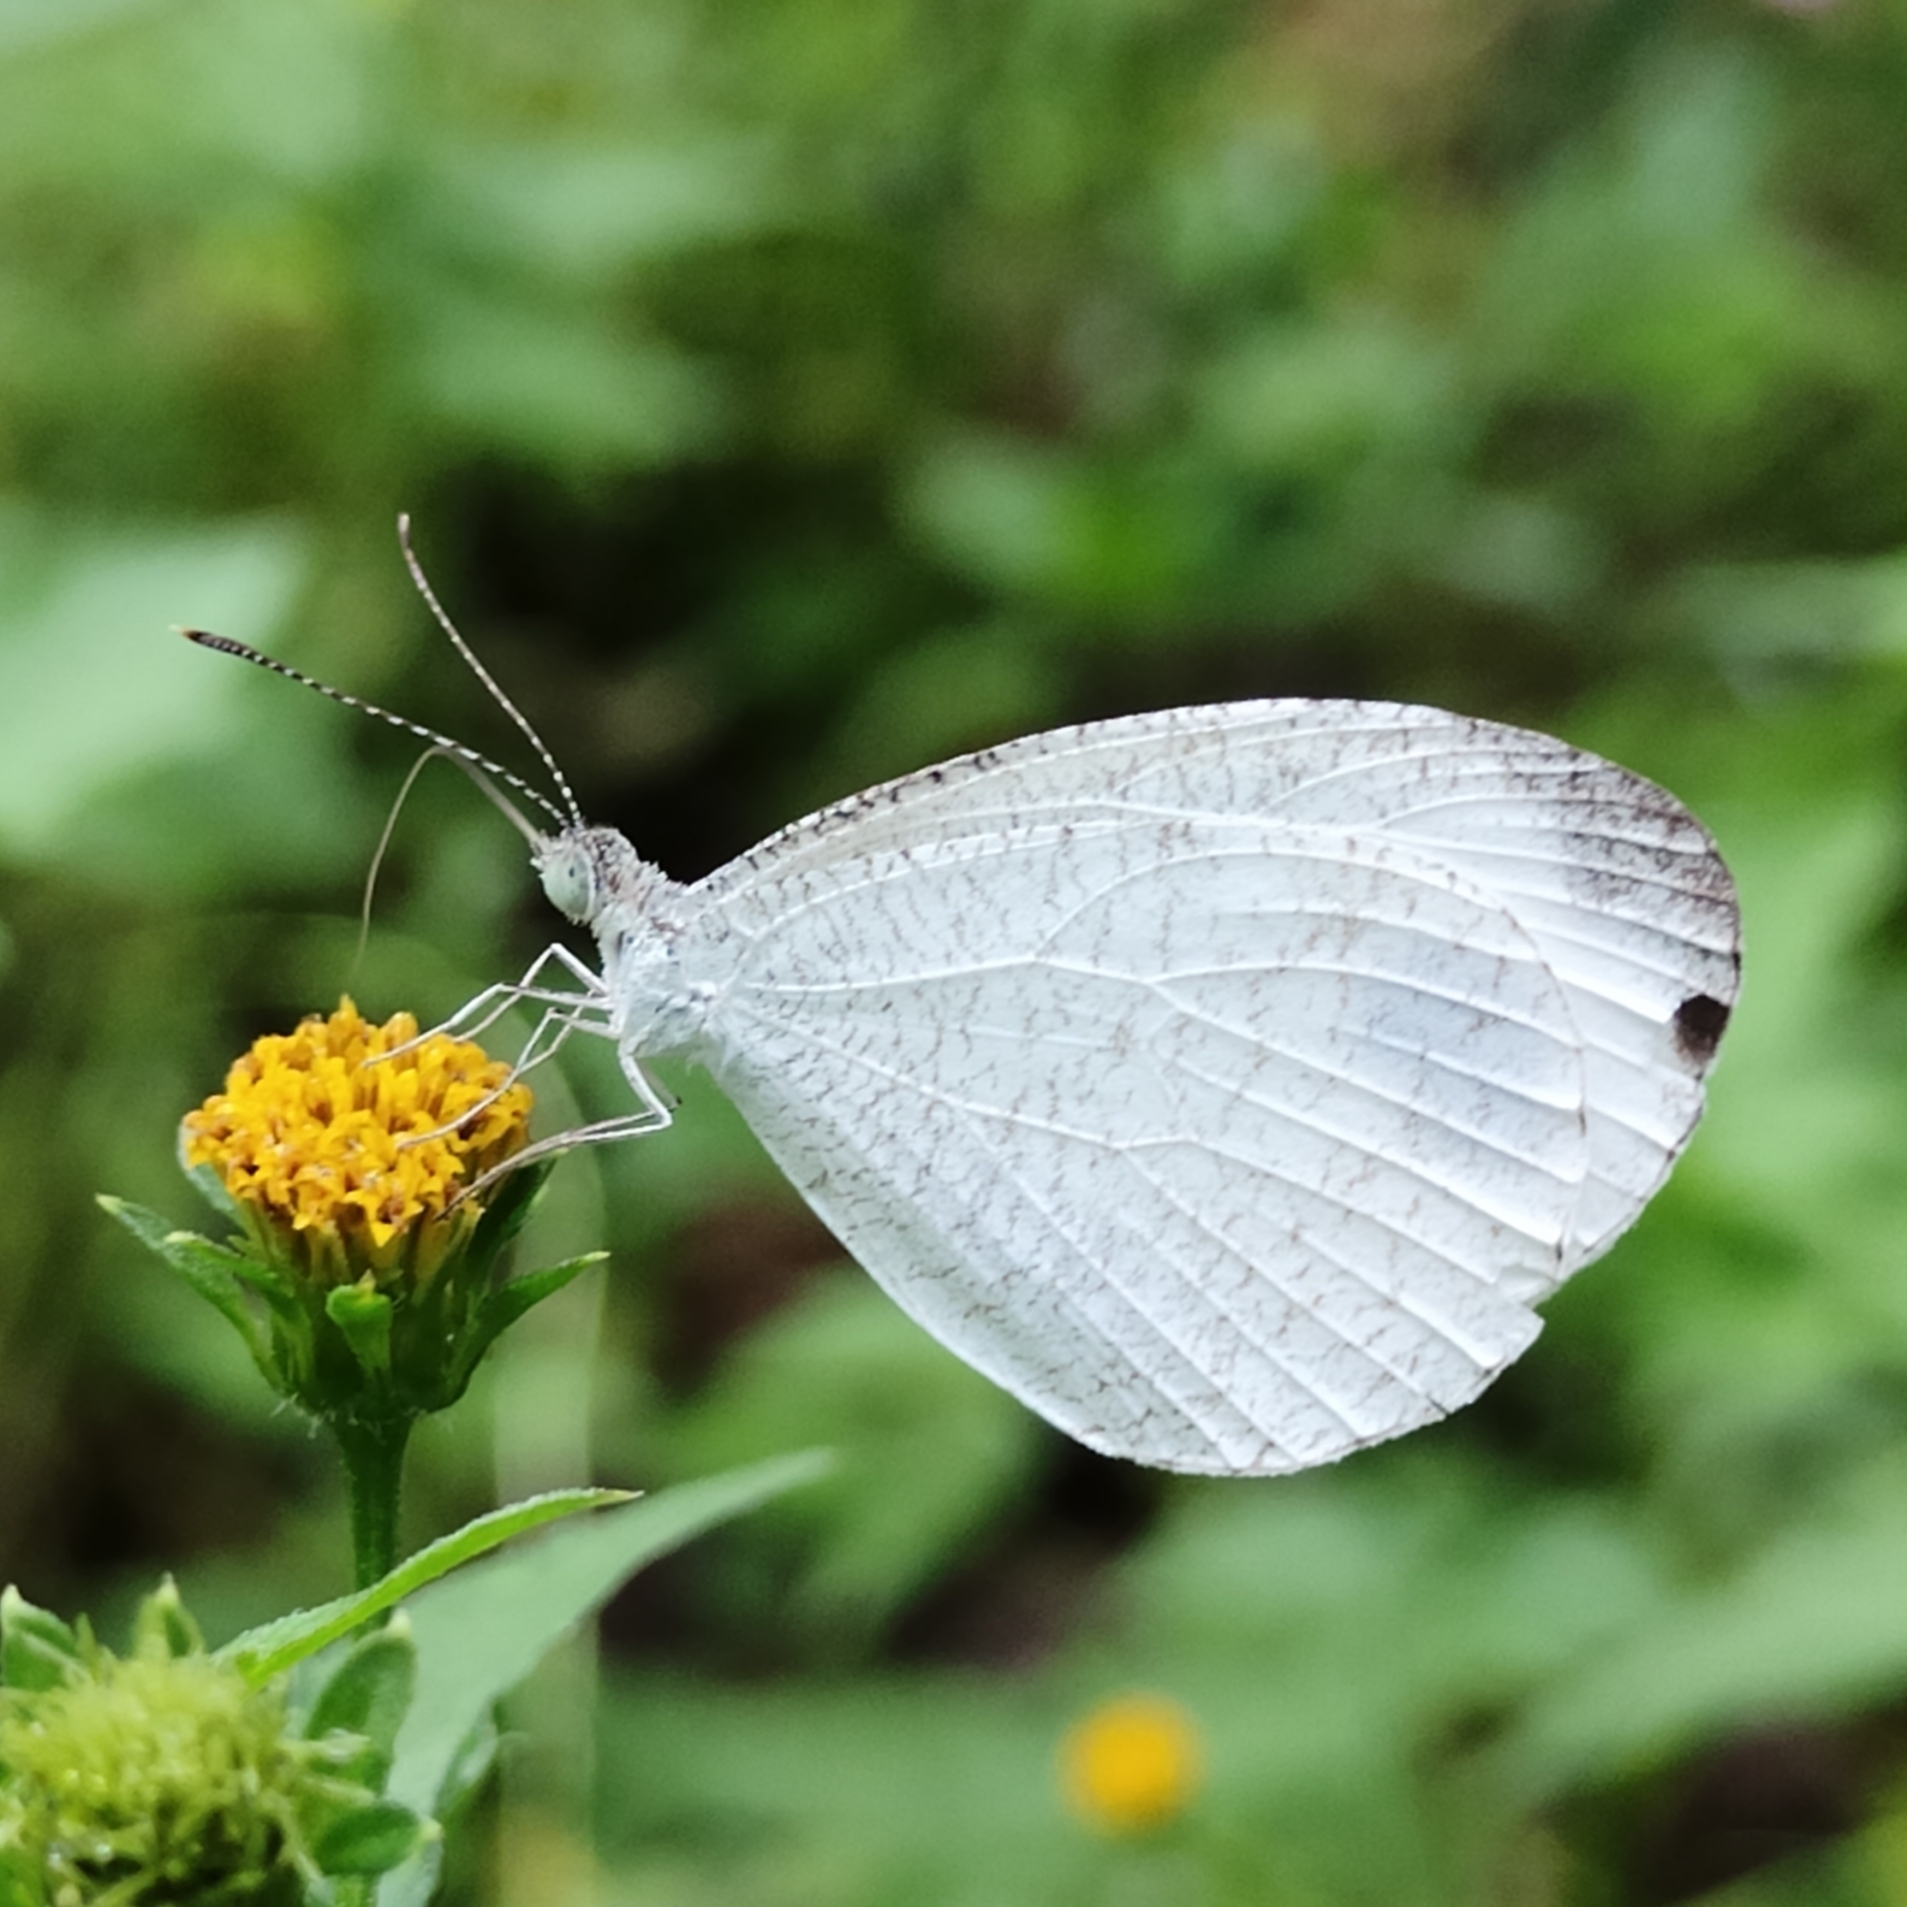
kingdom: Animalia
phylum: Arthropoda
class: Insecta
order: Lepidoptera
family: Pieridae
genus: Leptosia
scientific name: Leptosia nina
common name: Psyche
